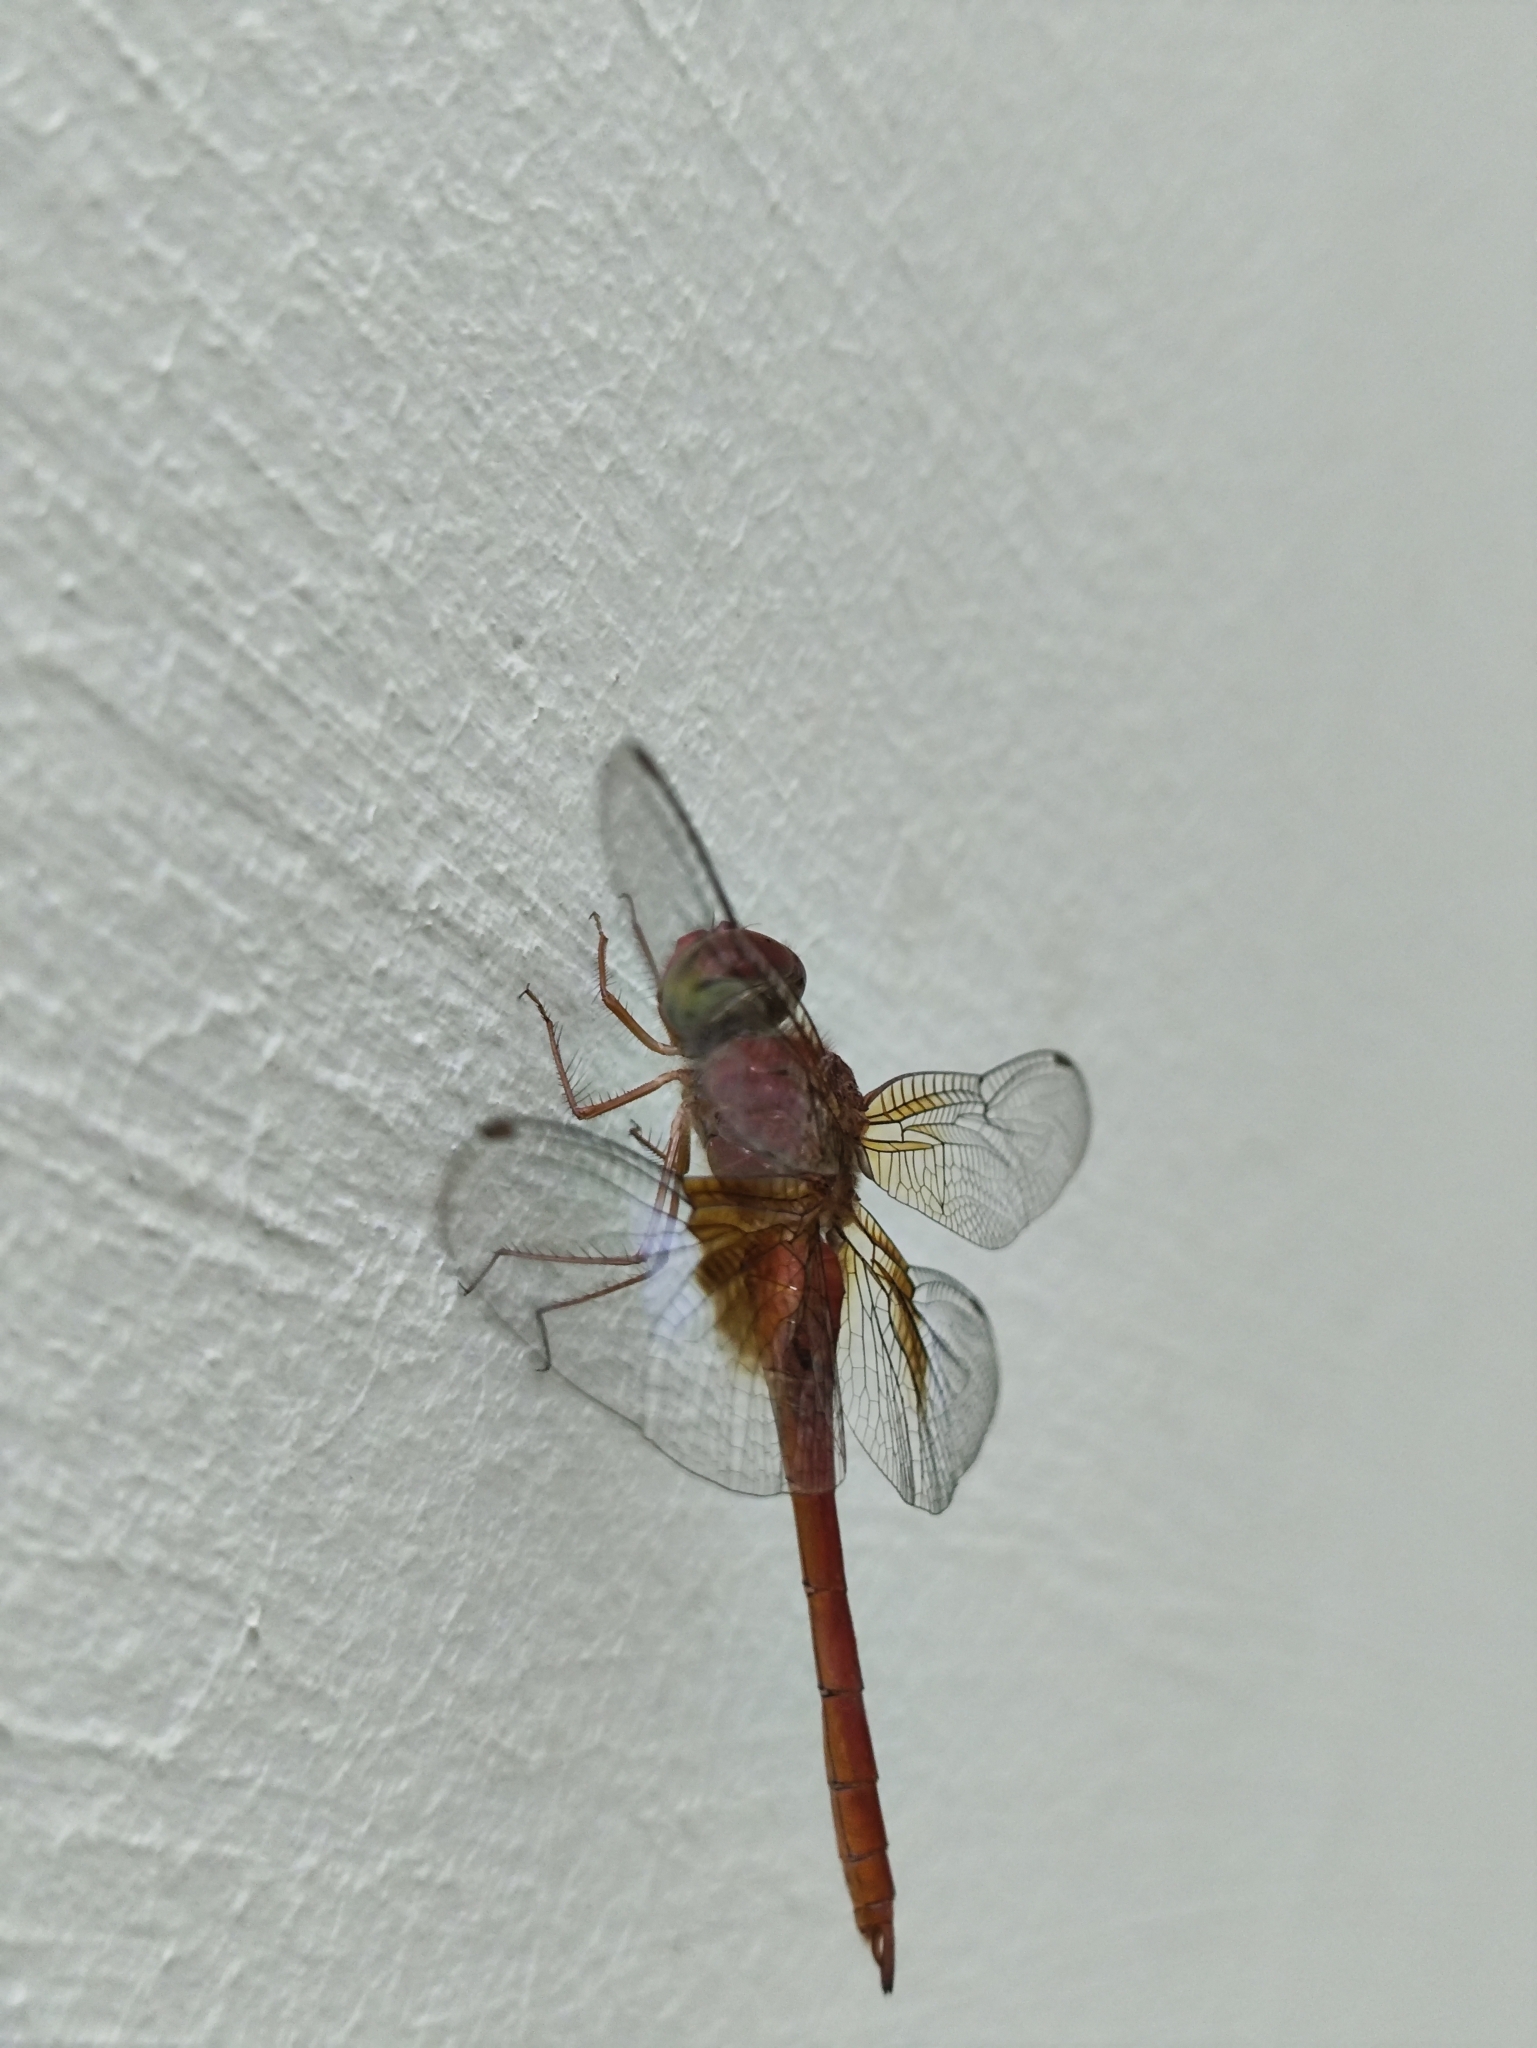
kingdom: Animalia
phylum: Arthropoda
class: Insecta
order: Odonata
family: Libellulidae
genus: Tholymis
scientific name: Tholymis tillarga
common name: Coral-tailed cloud wing
